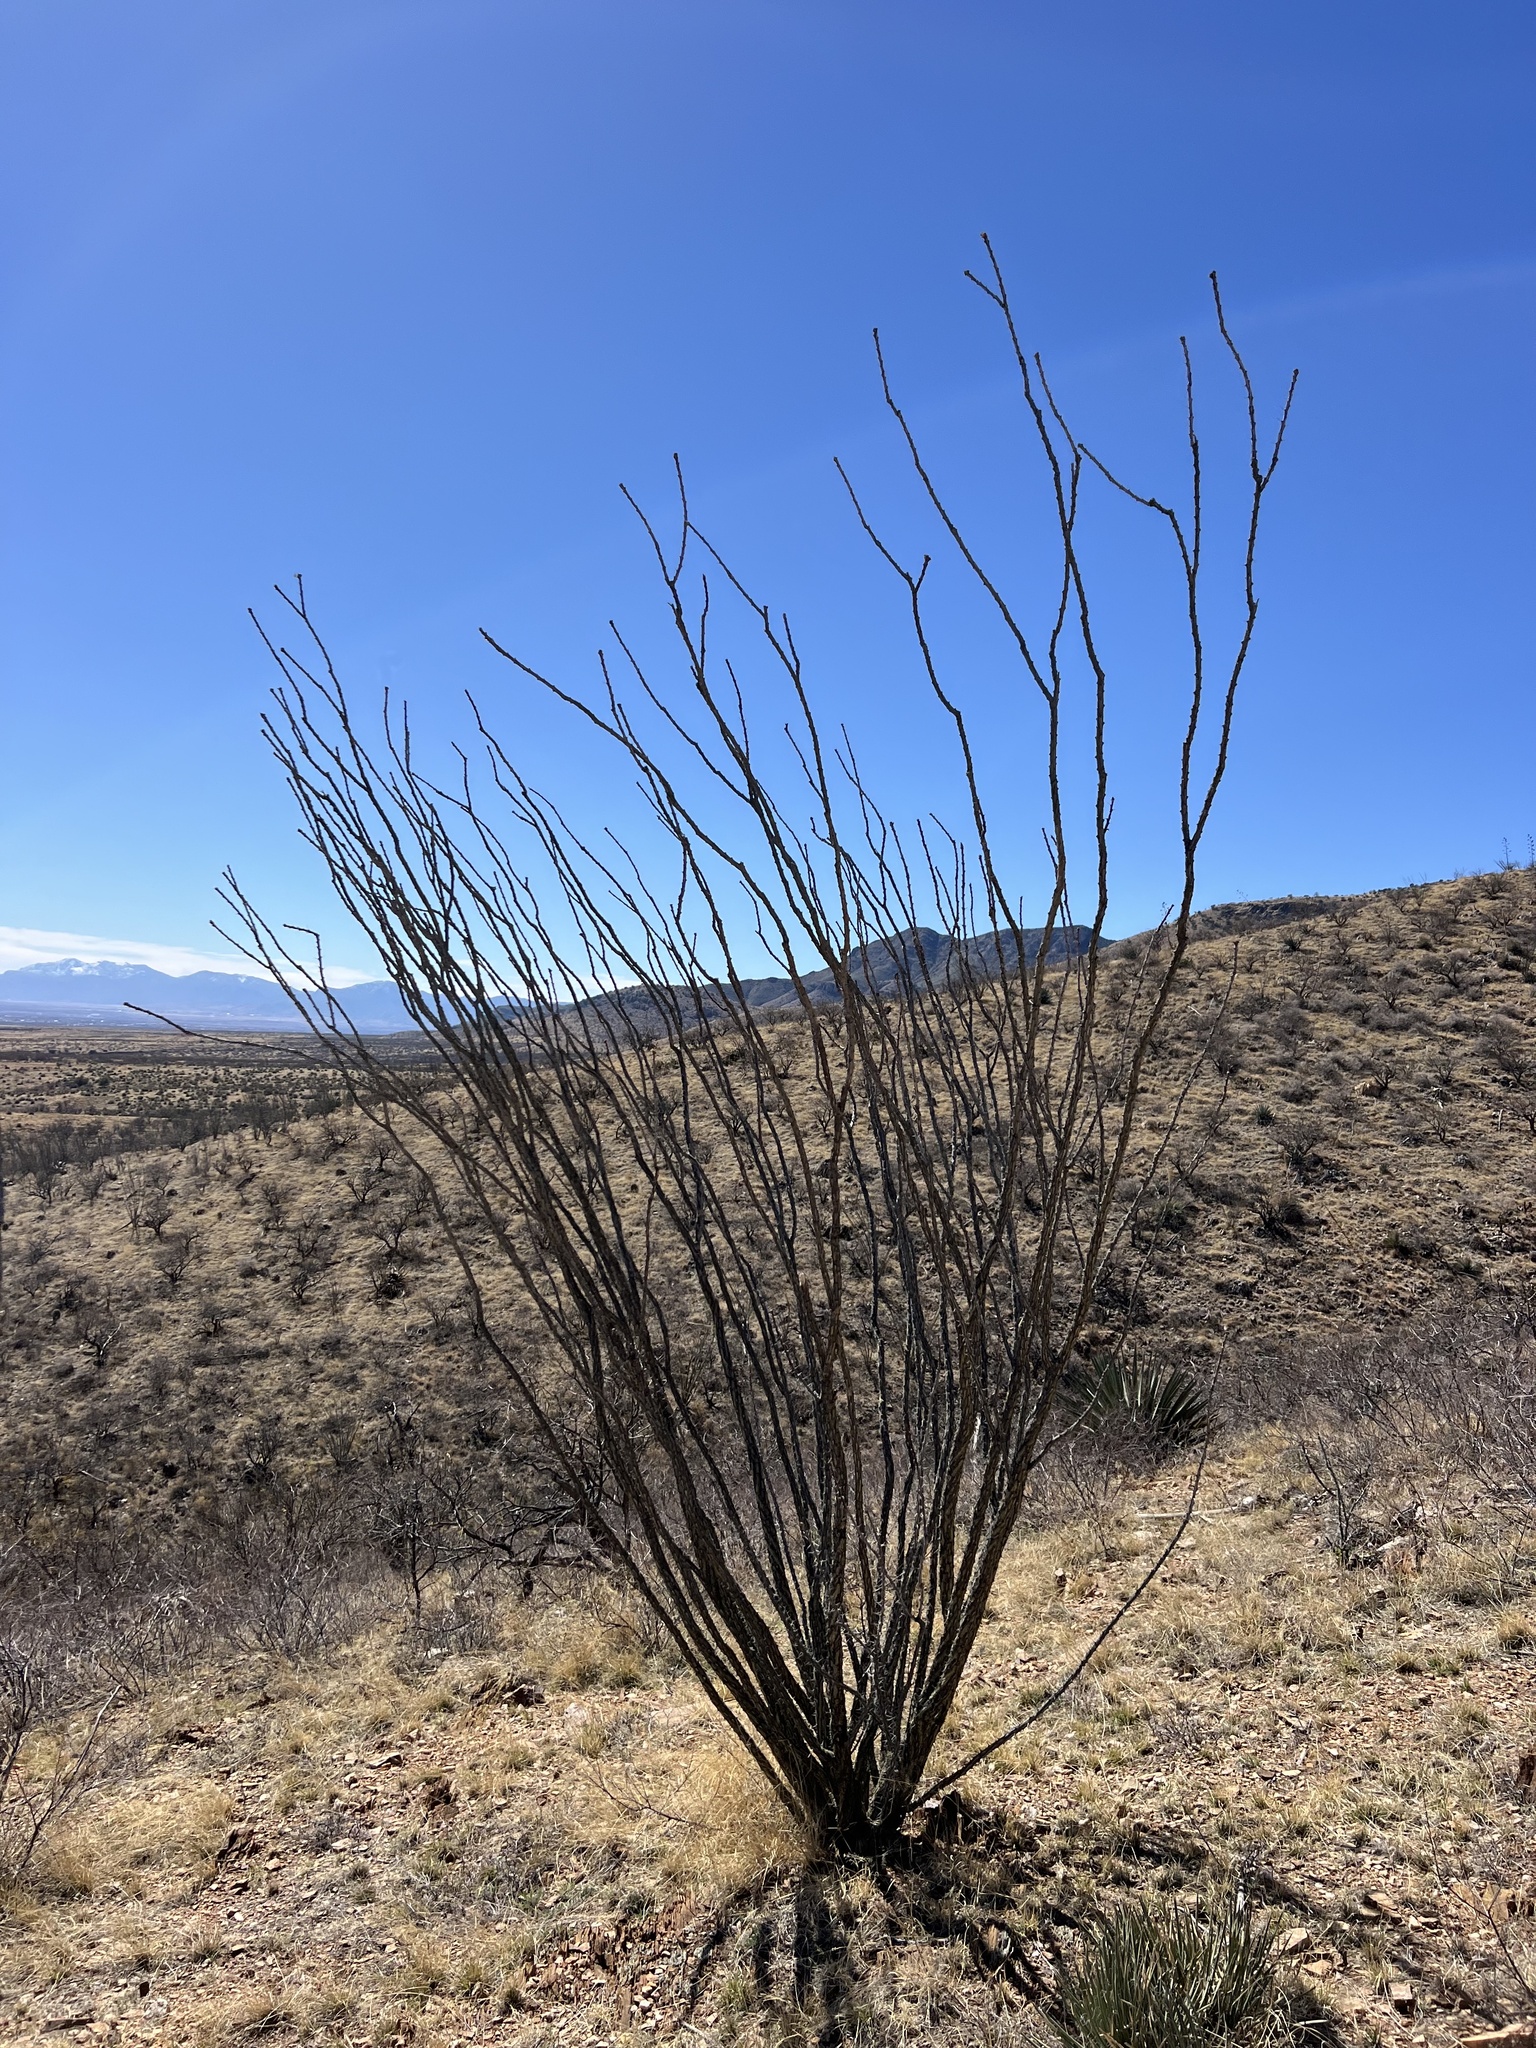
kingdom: Plantae
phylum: Tracheophyta
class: Magnoliopsida
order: Ericales
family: Fouquieriaceae
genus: Fouquieria
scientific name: Fouquieria splendens
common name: Vine-cactus
